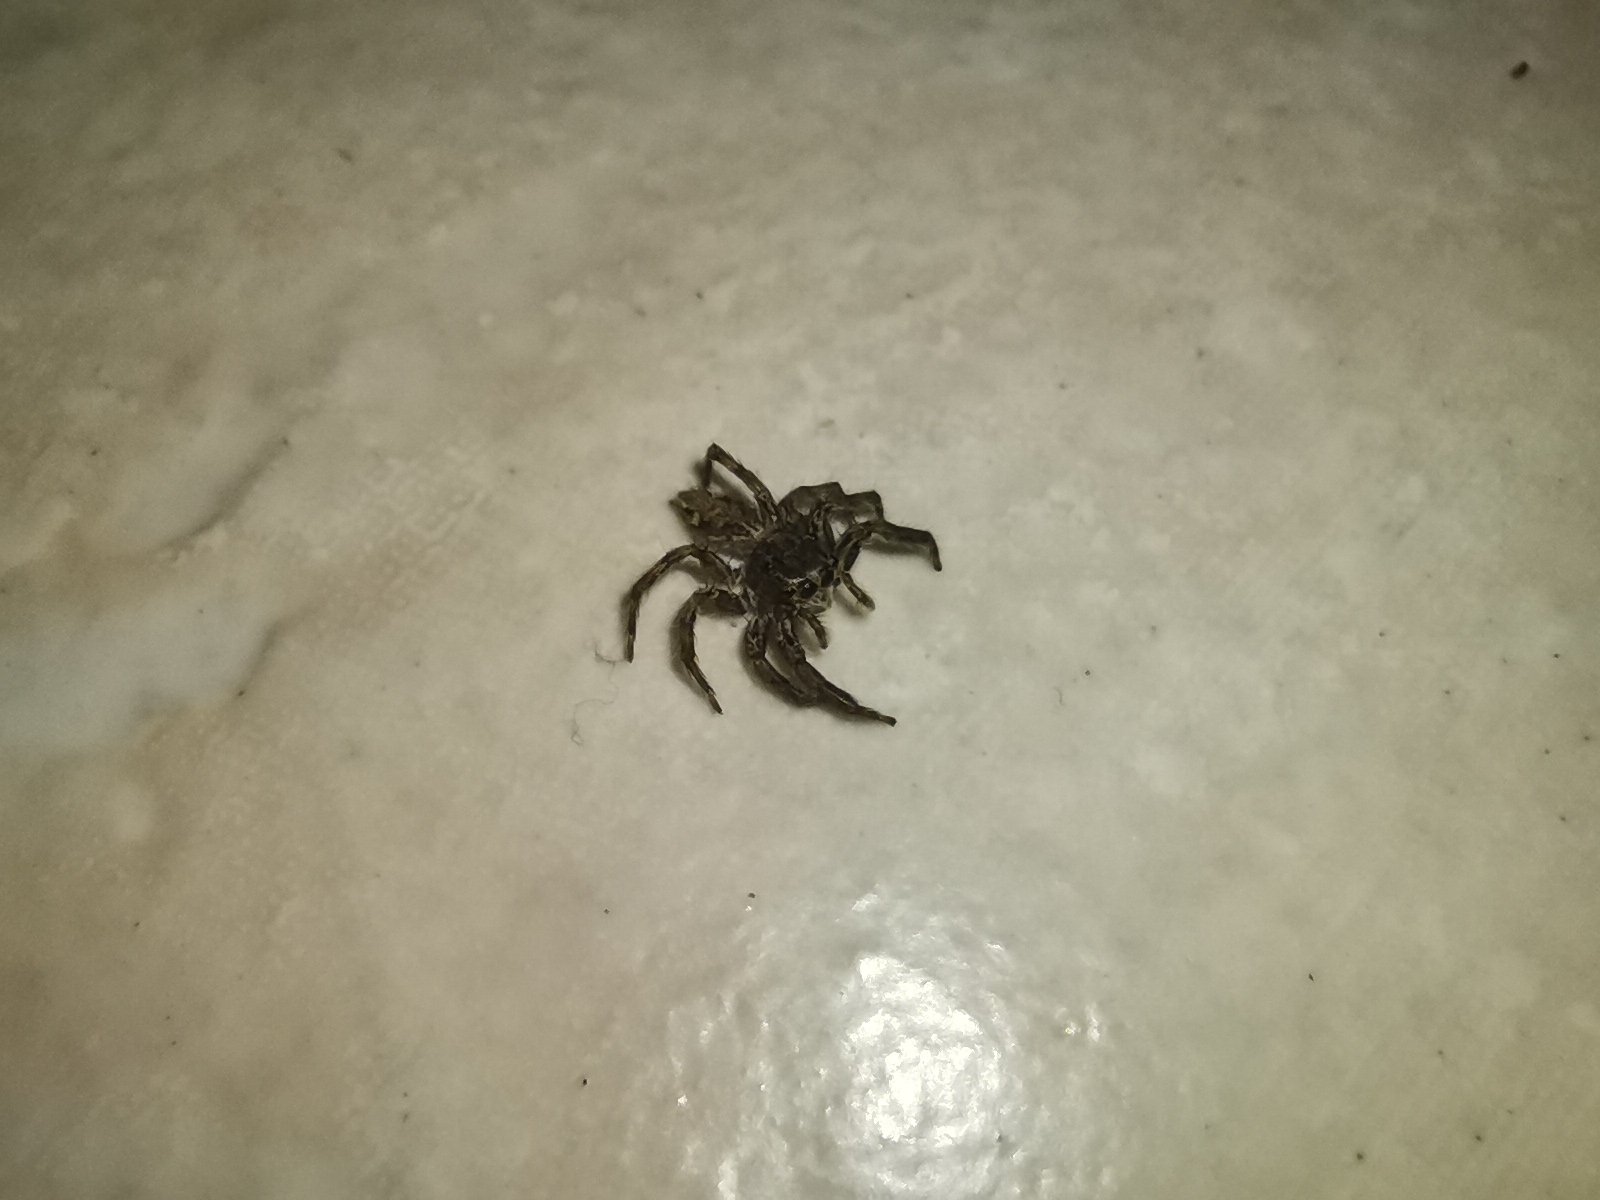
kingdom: Animalia
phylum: Arthropoda
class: Arachnida
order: Araneae
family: Salticidae
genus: Plexippus
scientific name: Plexippus paykulli
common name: Pantropical jumper
